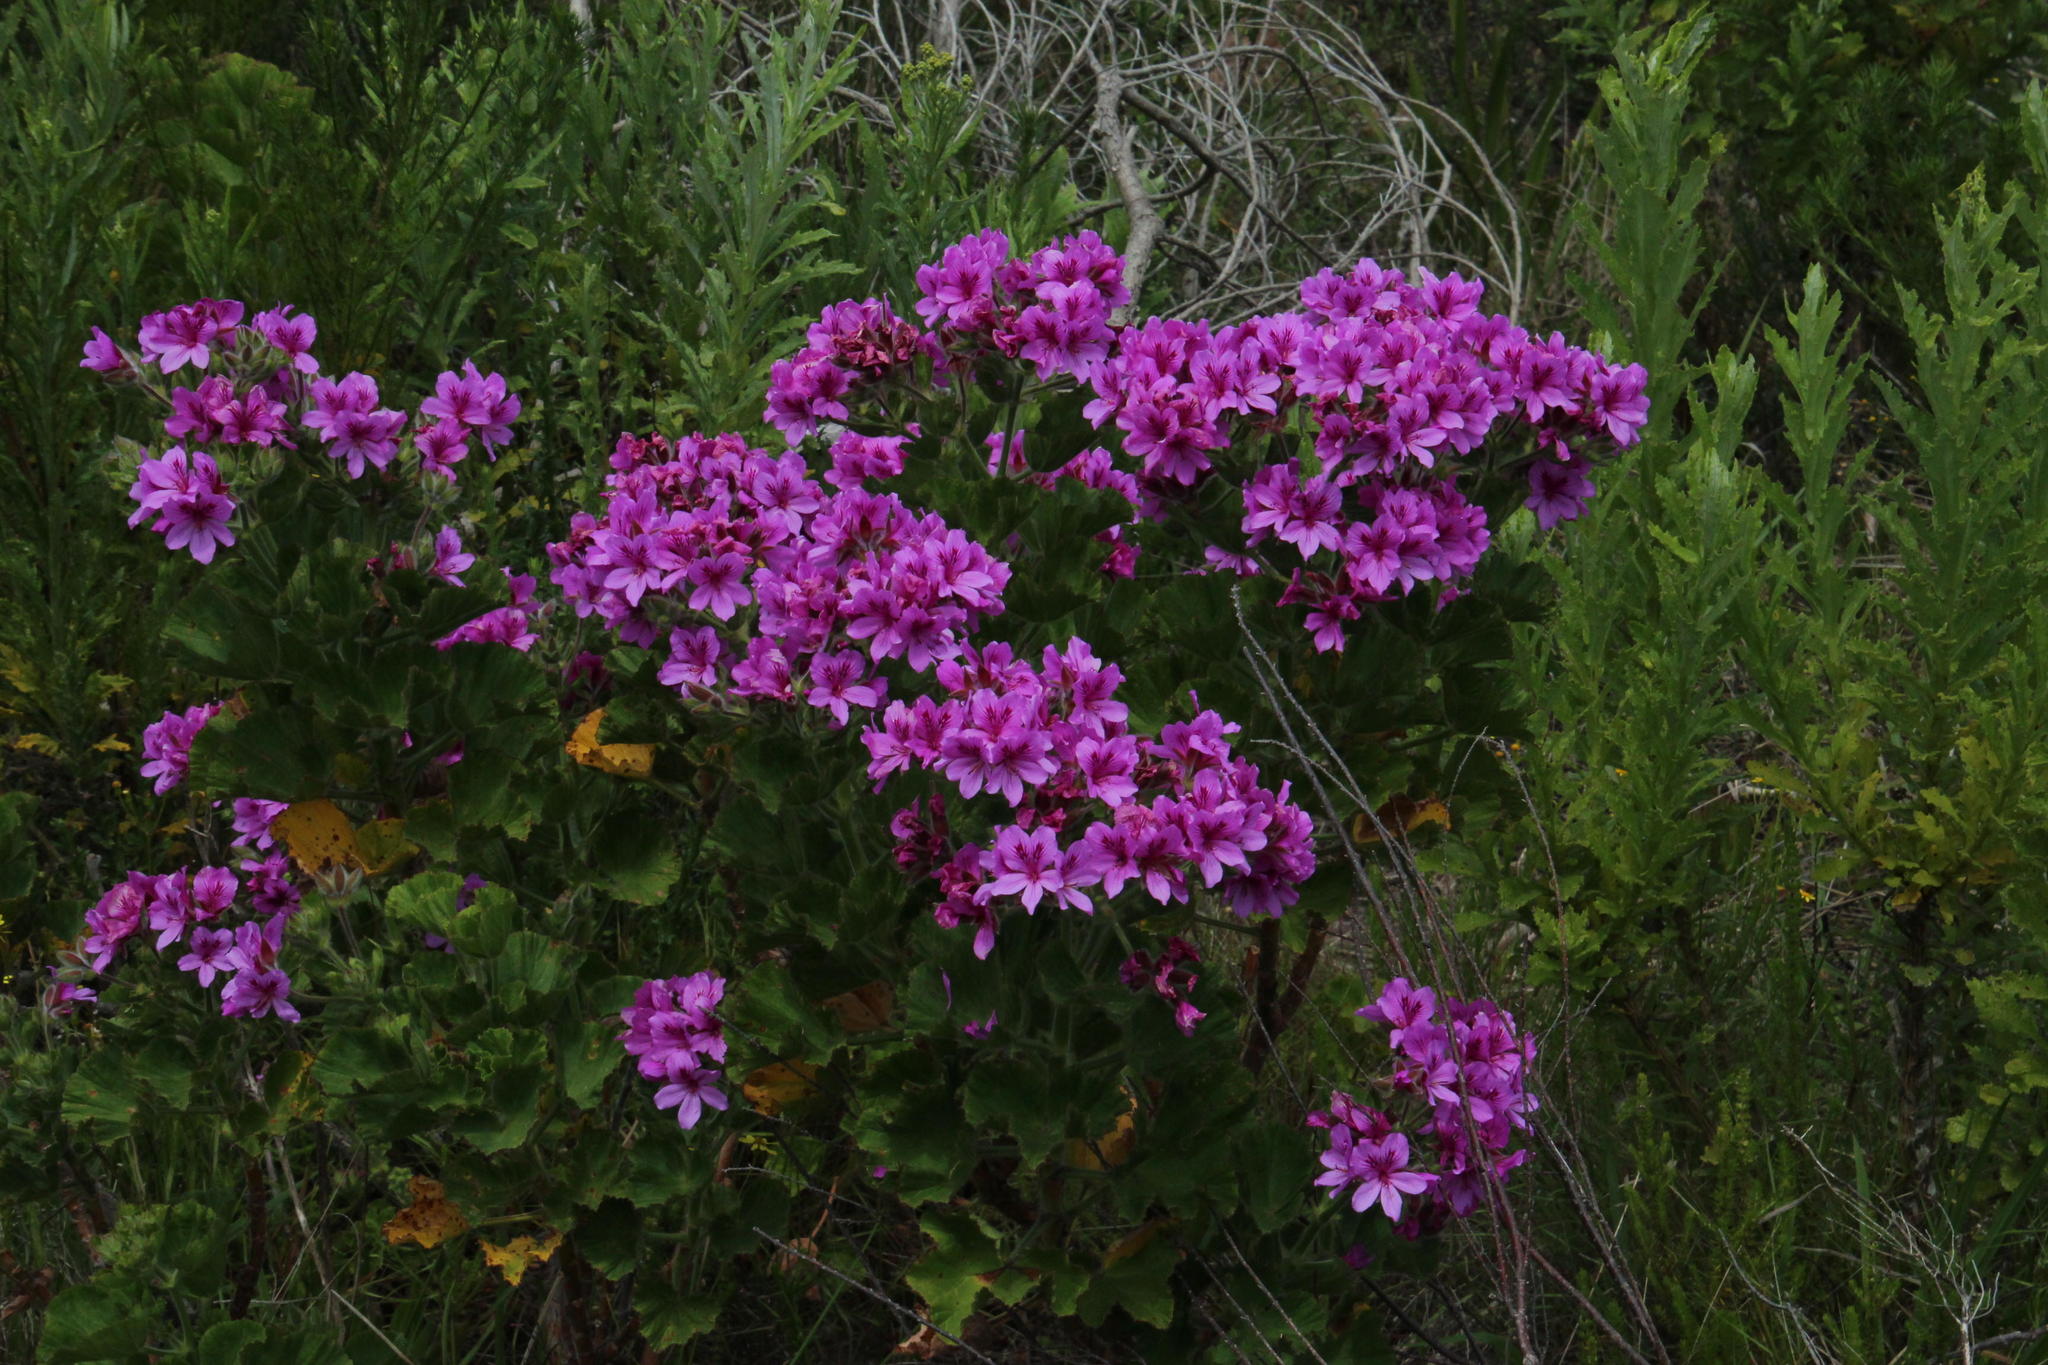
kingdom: Plantae
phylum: Tracheophyta
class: Magnoliopsida
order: Geraniales
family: Geraniaceae
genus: Pelargonium
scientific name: Pelargonium cucullatum
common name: Tree pelargonium
